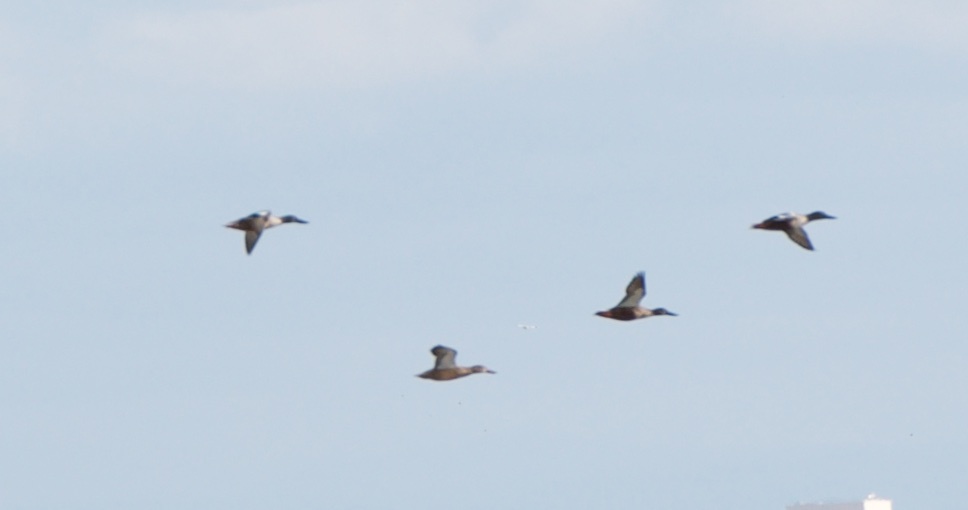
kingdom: Animalia
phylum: Chordata
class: Aves
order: Anseriformes
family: Anatidae
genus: Spatula
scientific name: Spatula clypeata
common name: Northern shoveler
